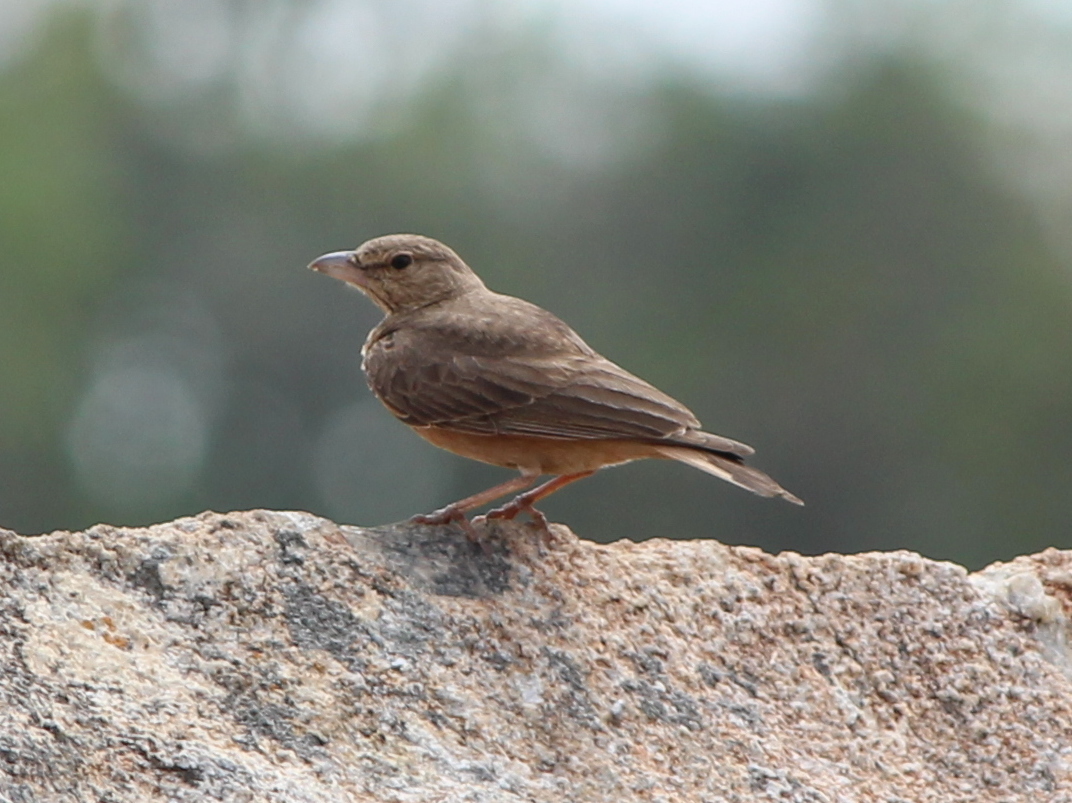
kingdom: Animalia
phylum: Chordata
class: Aves
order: Passeriformes
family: Alaudidae
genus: Ammomanes
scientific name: Ammomanes phoenicura
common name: Rufous-tailed lark
